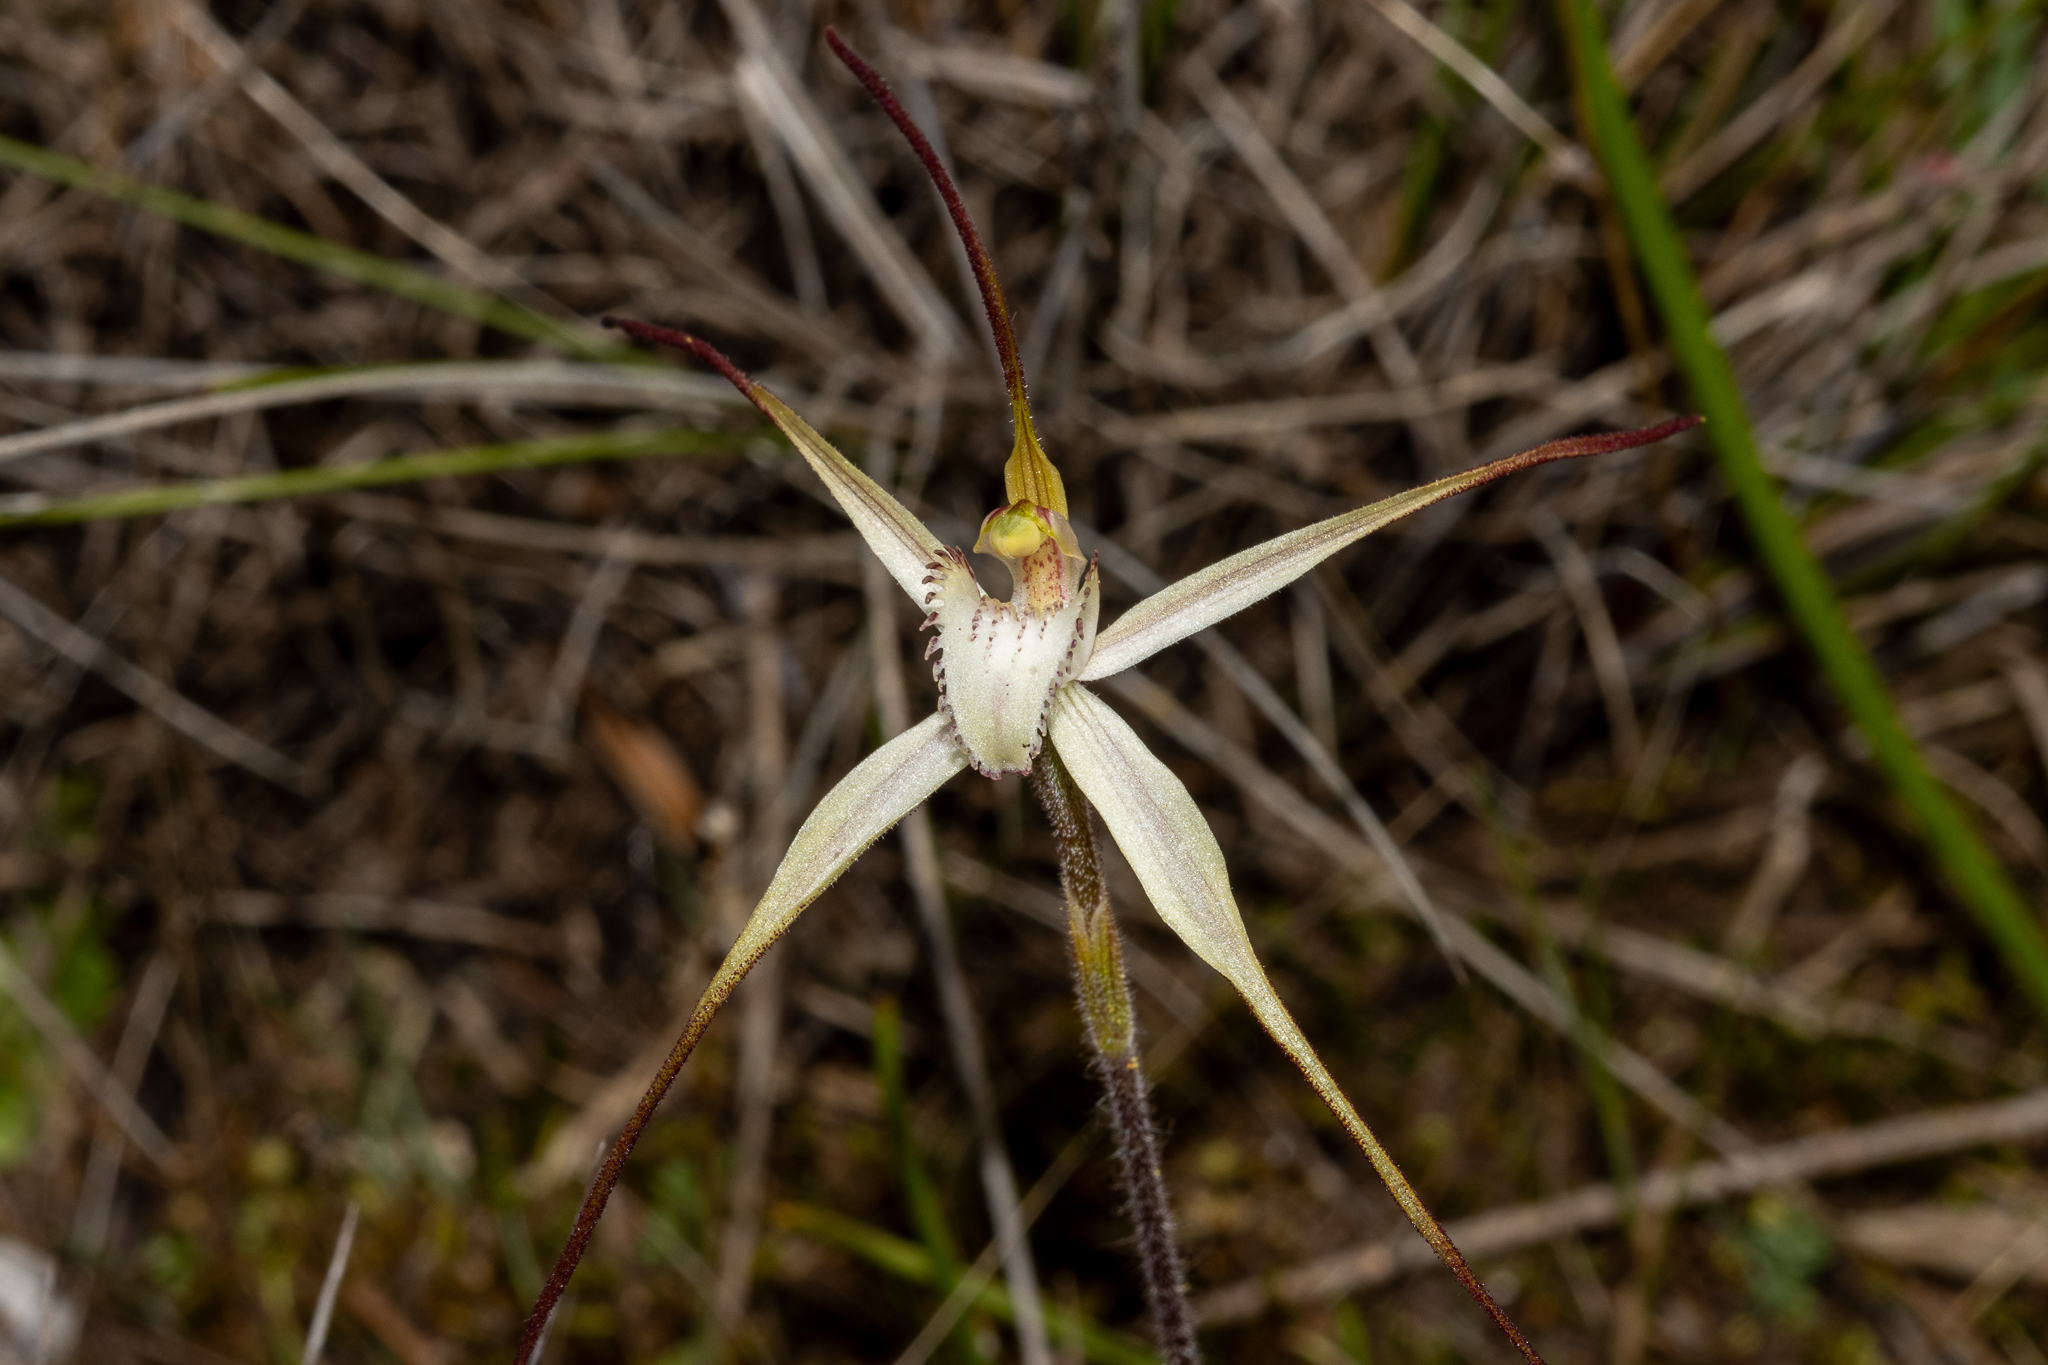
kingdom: Plantae
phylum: Tracheophyta
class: Liliopsida
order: Asparagales
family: Orchidaceae
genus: Caladenia
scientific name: Caladenia brumalis
